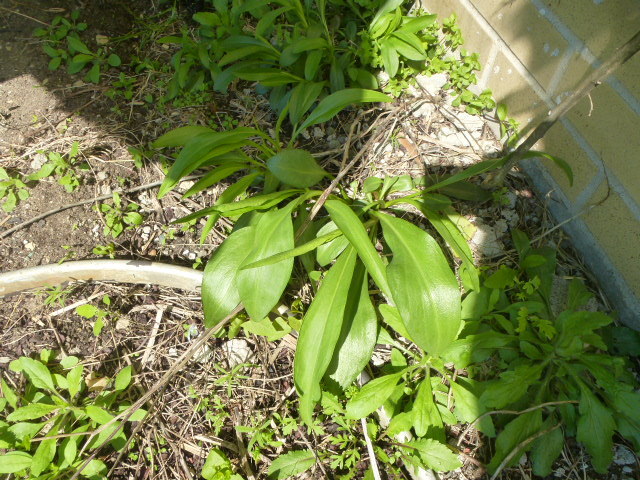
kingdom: Plantae
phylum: Tracheophyta
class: Magnoliopsida
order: Asterales
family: Asteraceae
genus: Solidago
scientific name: Solidago sempervirens
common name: Salt-marsh goldenrod
